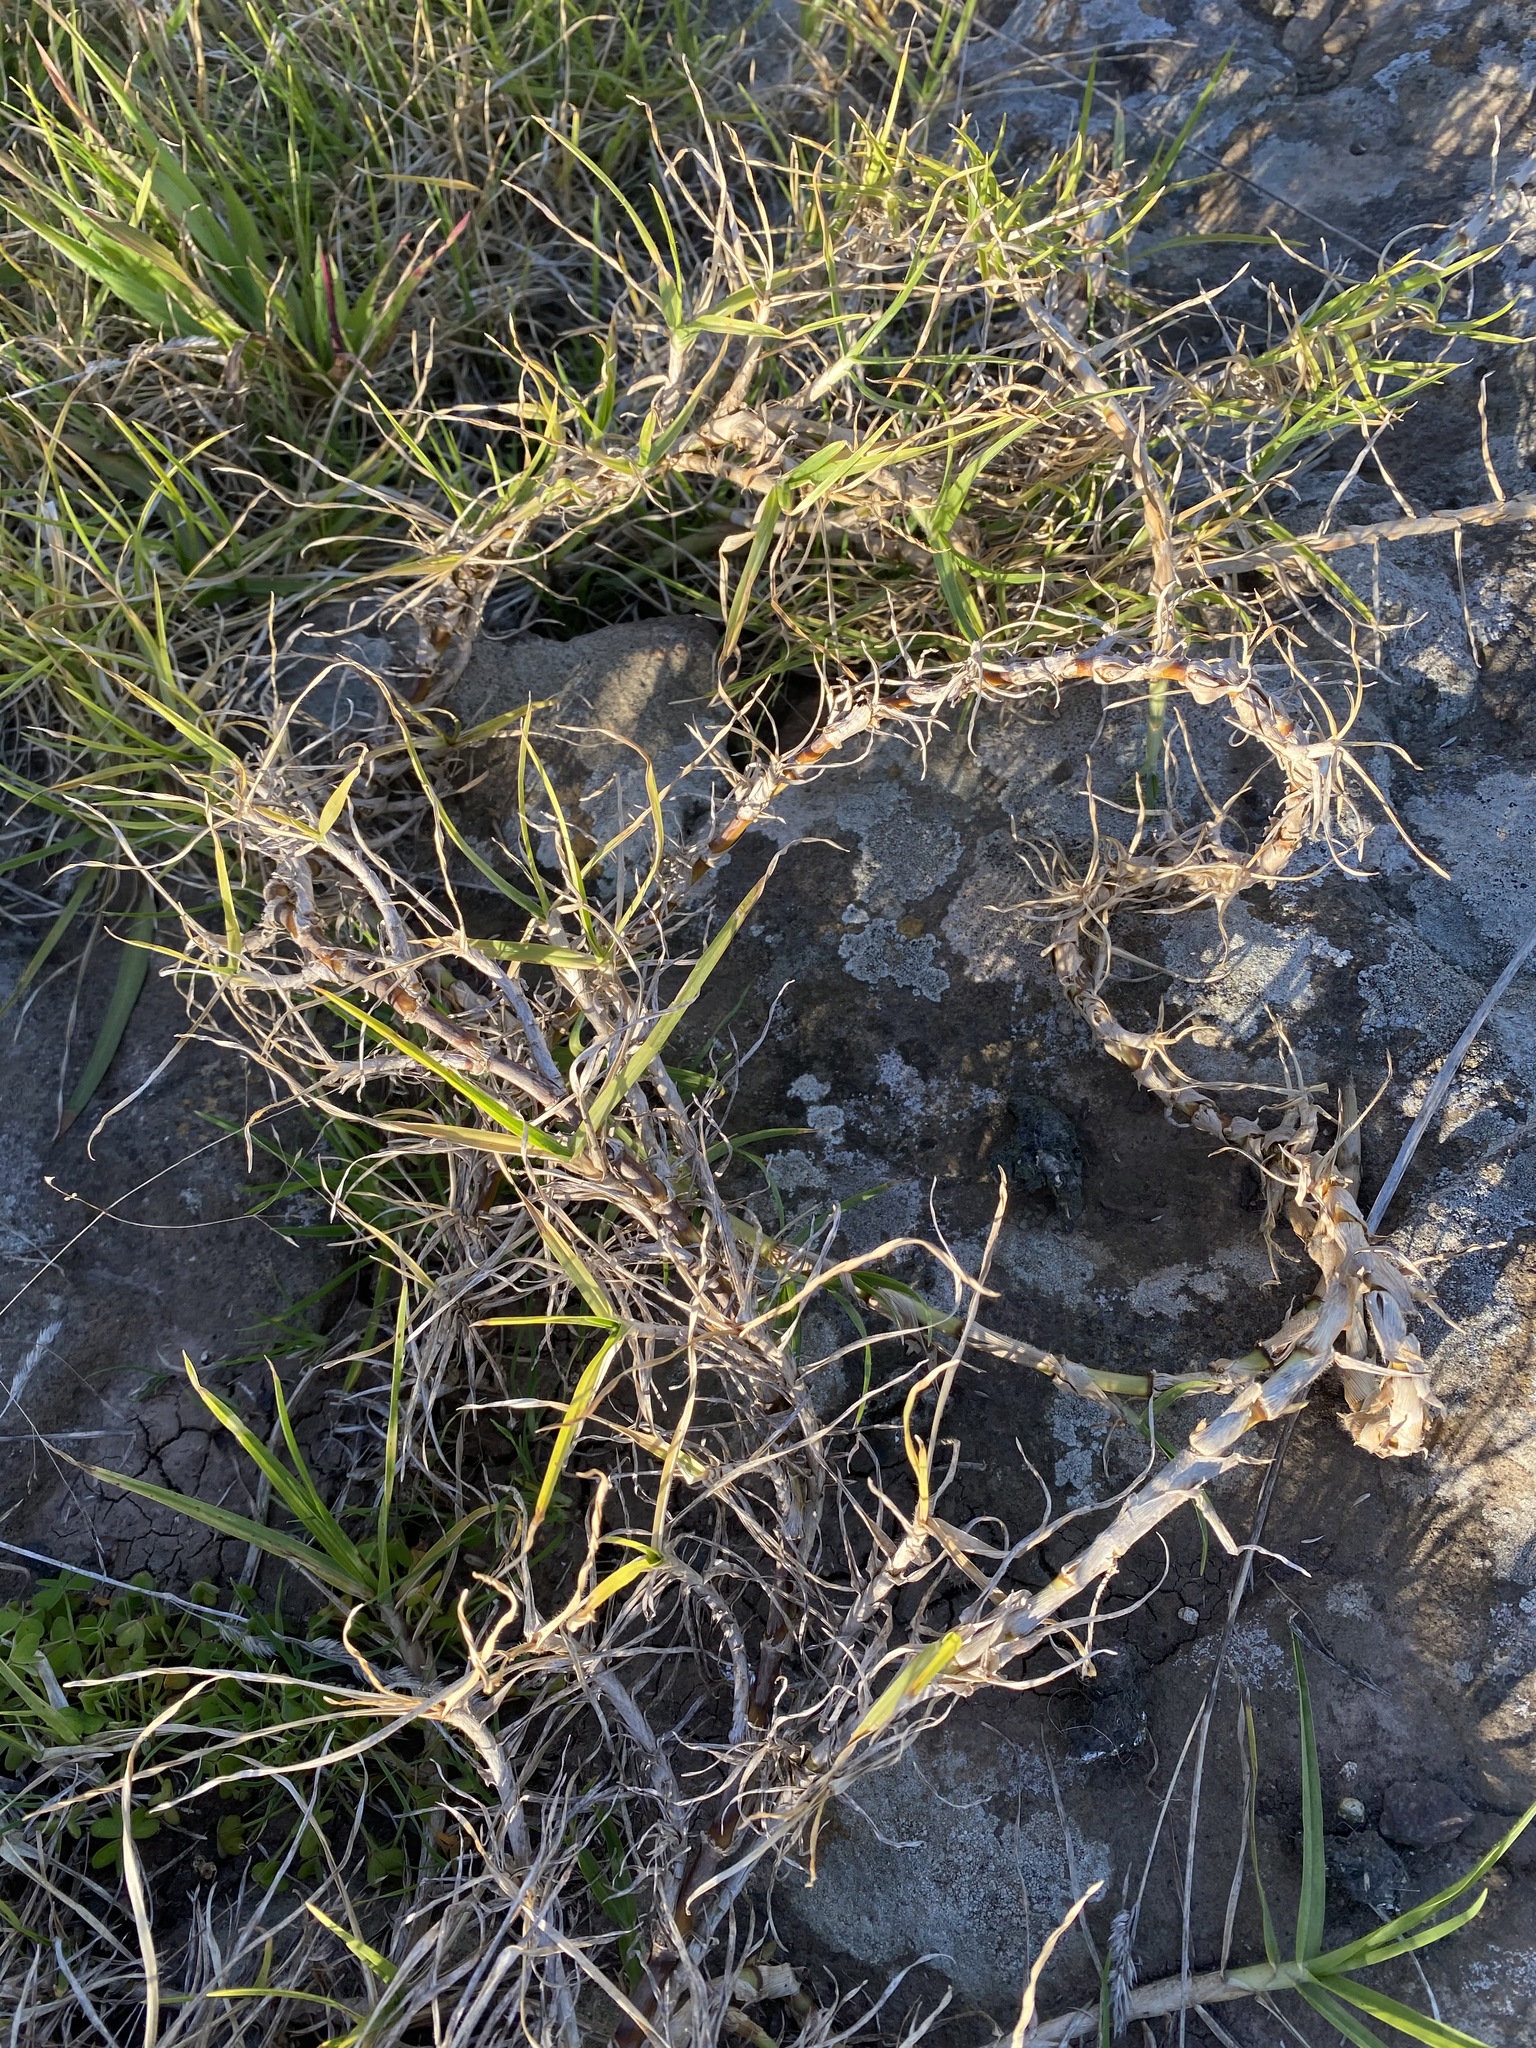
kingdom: Plantae
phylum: Tracheophyta
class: Liliopsida
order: Poales
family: Poaceae
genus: Cenchrus
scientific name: Cenchrus clandestinus
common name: Kikuyugrass
